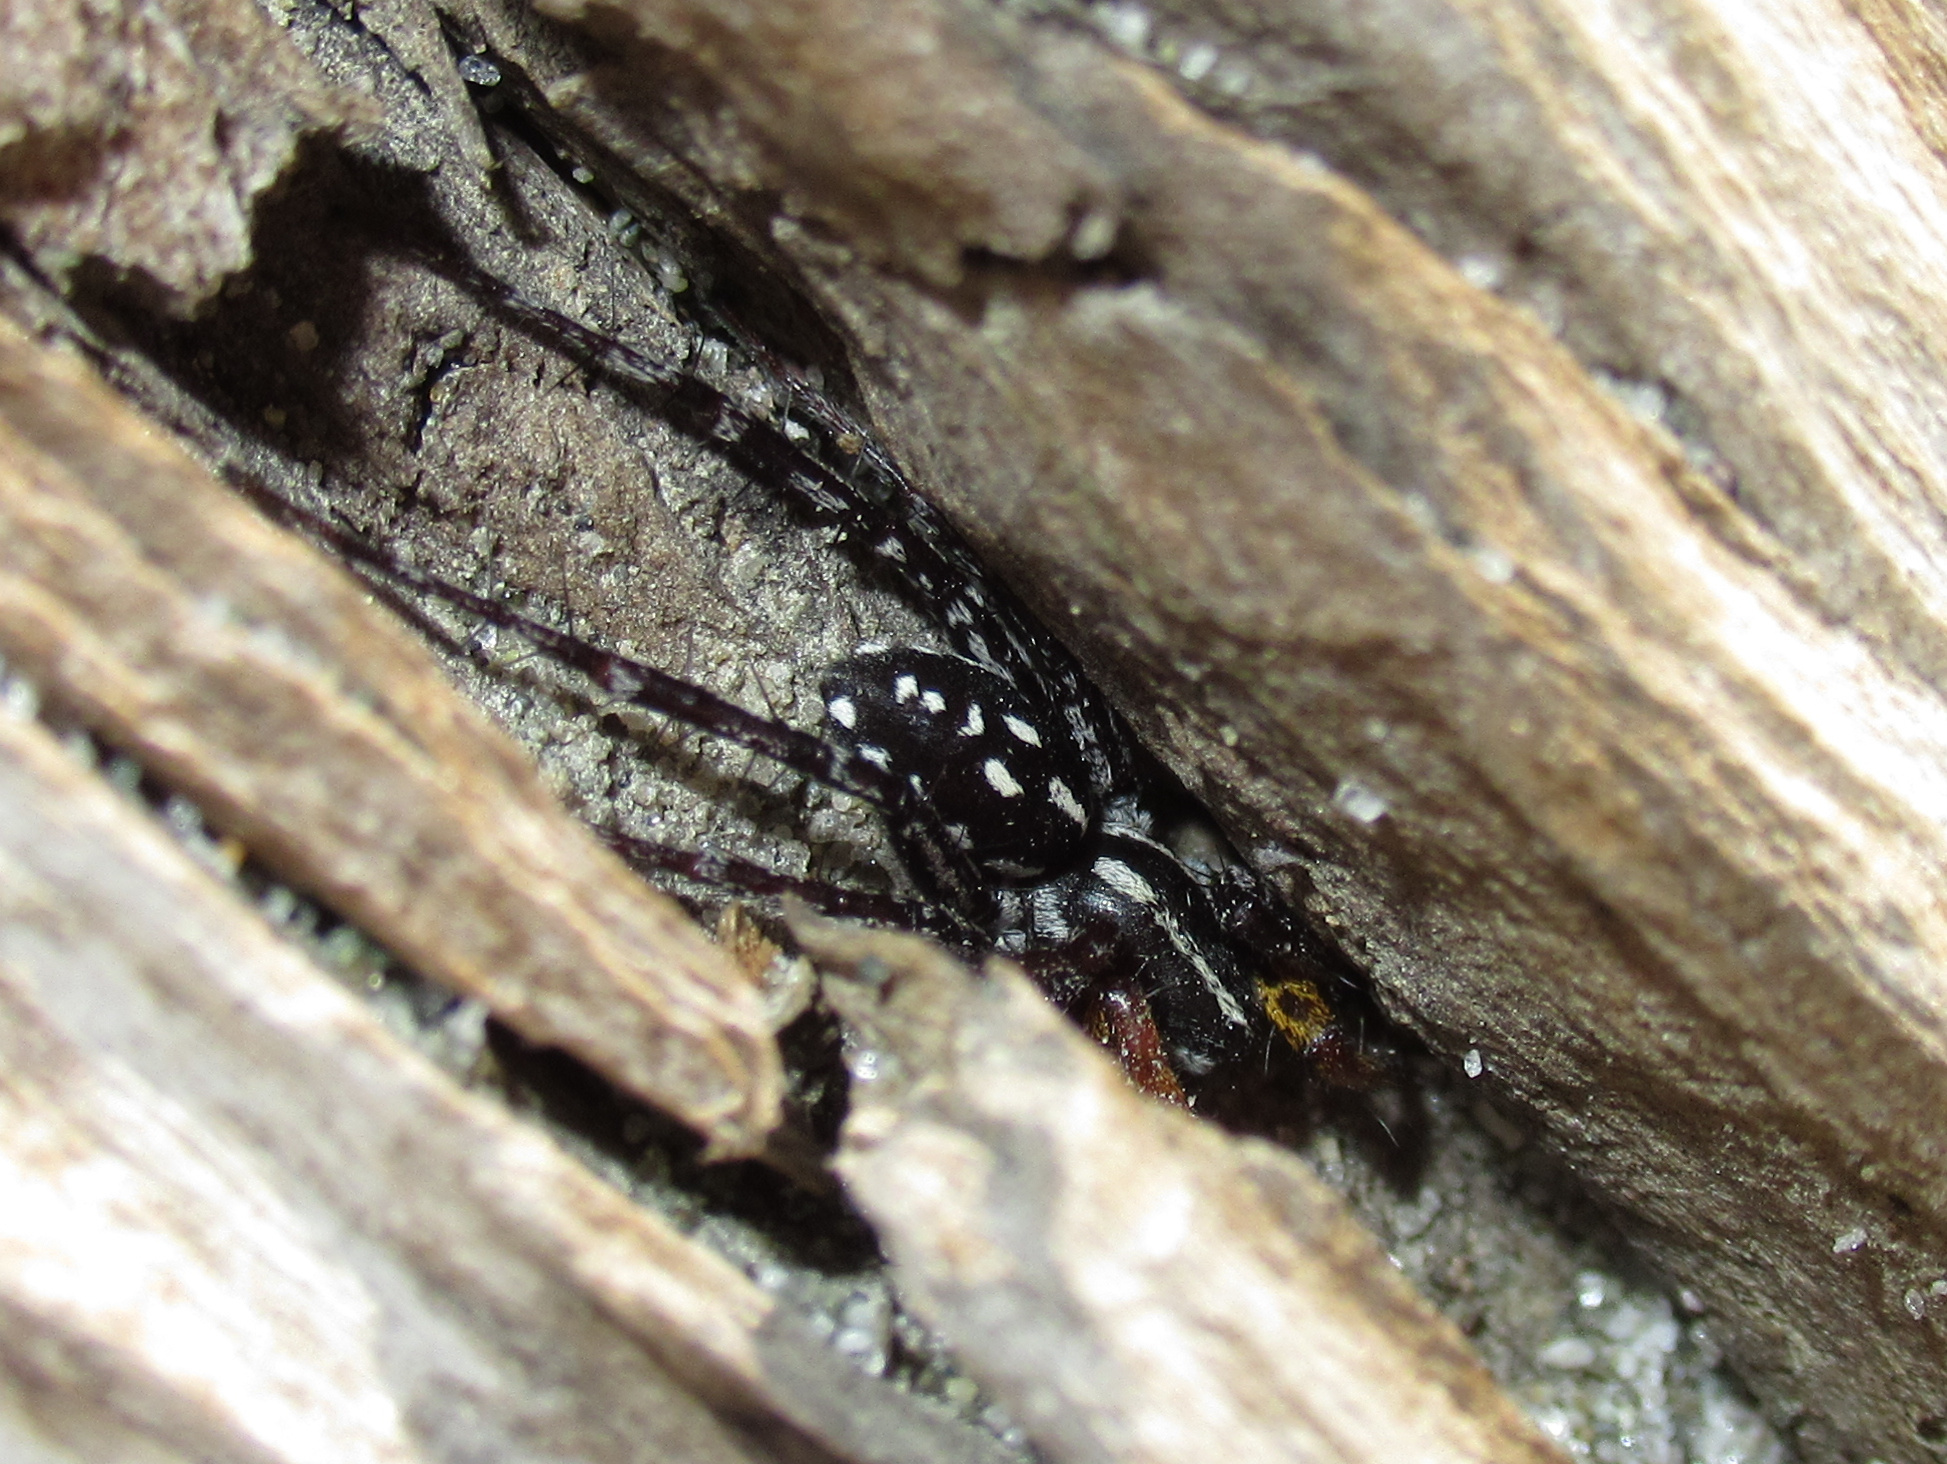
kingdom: Animalia
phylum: Arthropoda
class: Arachnida
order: Araneae
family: Corinnidae
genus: Nyssus
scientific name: Nyssus coloripes
